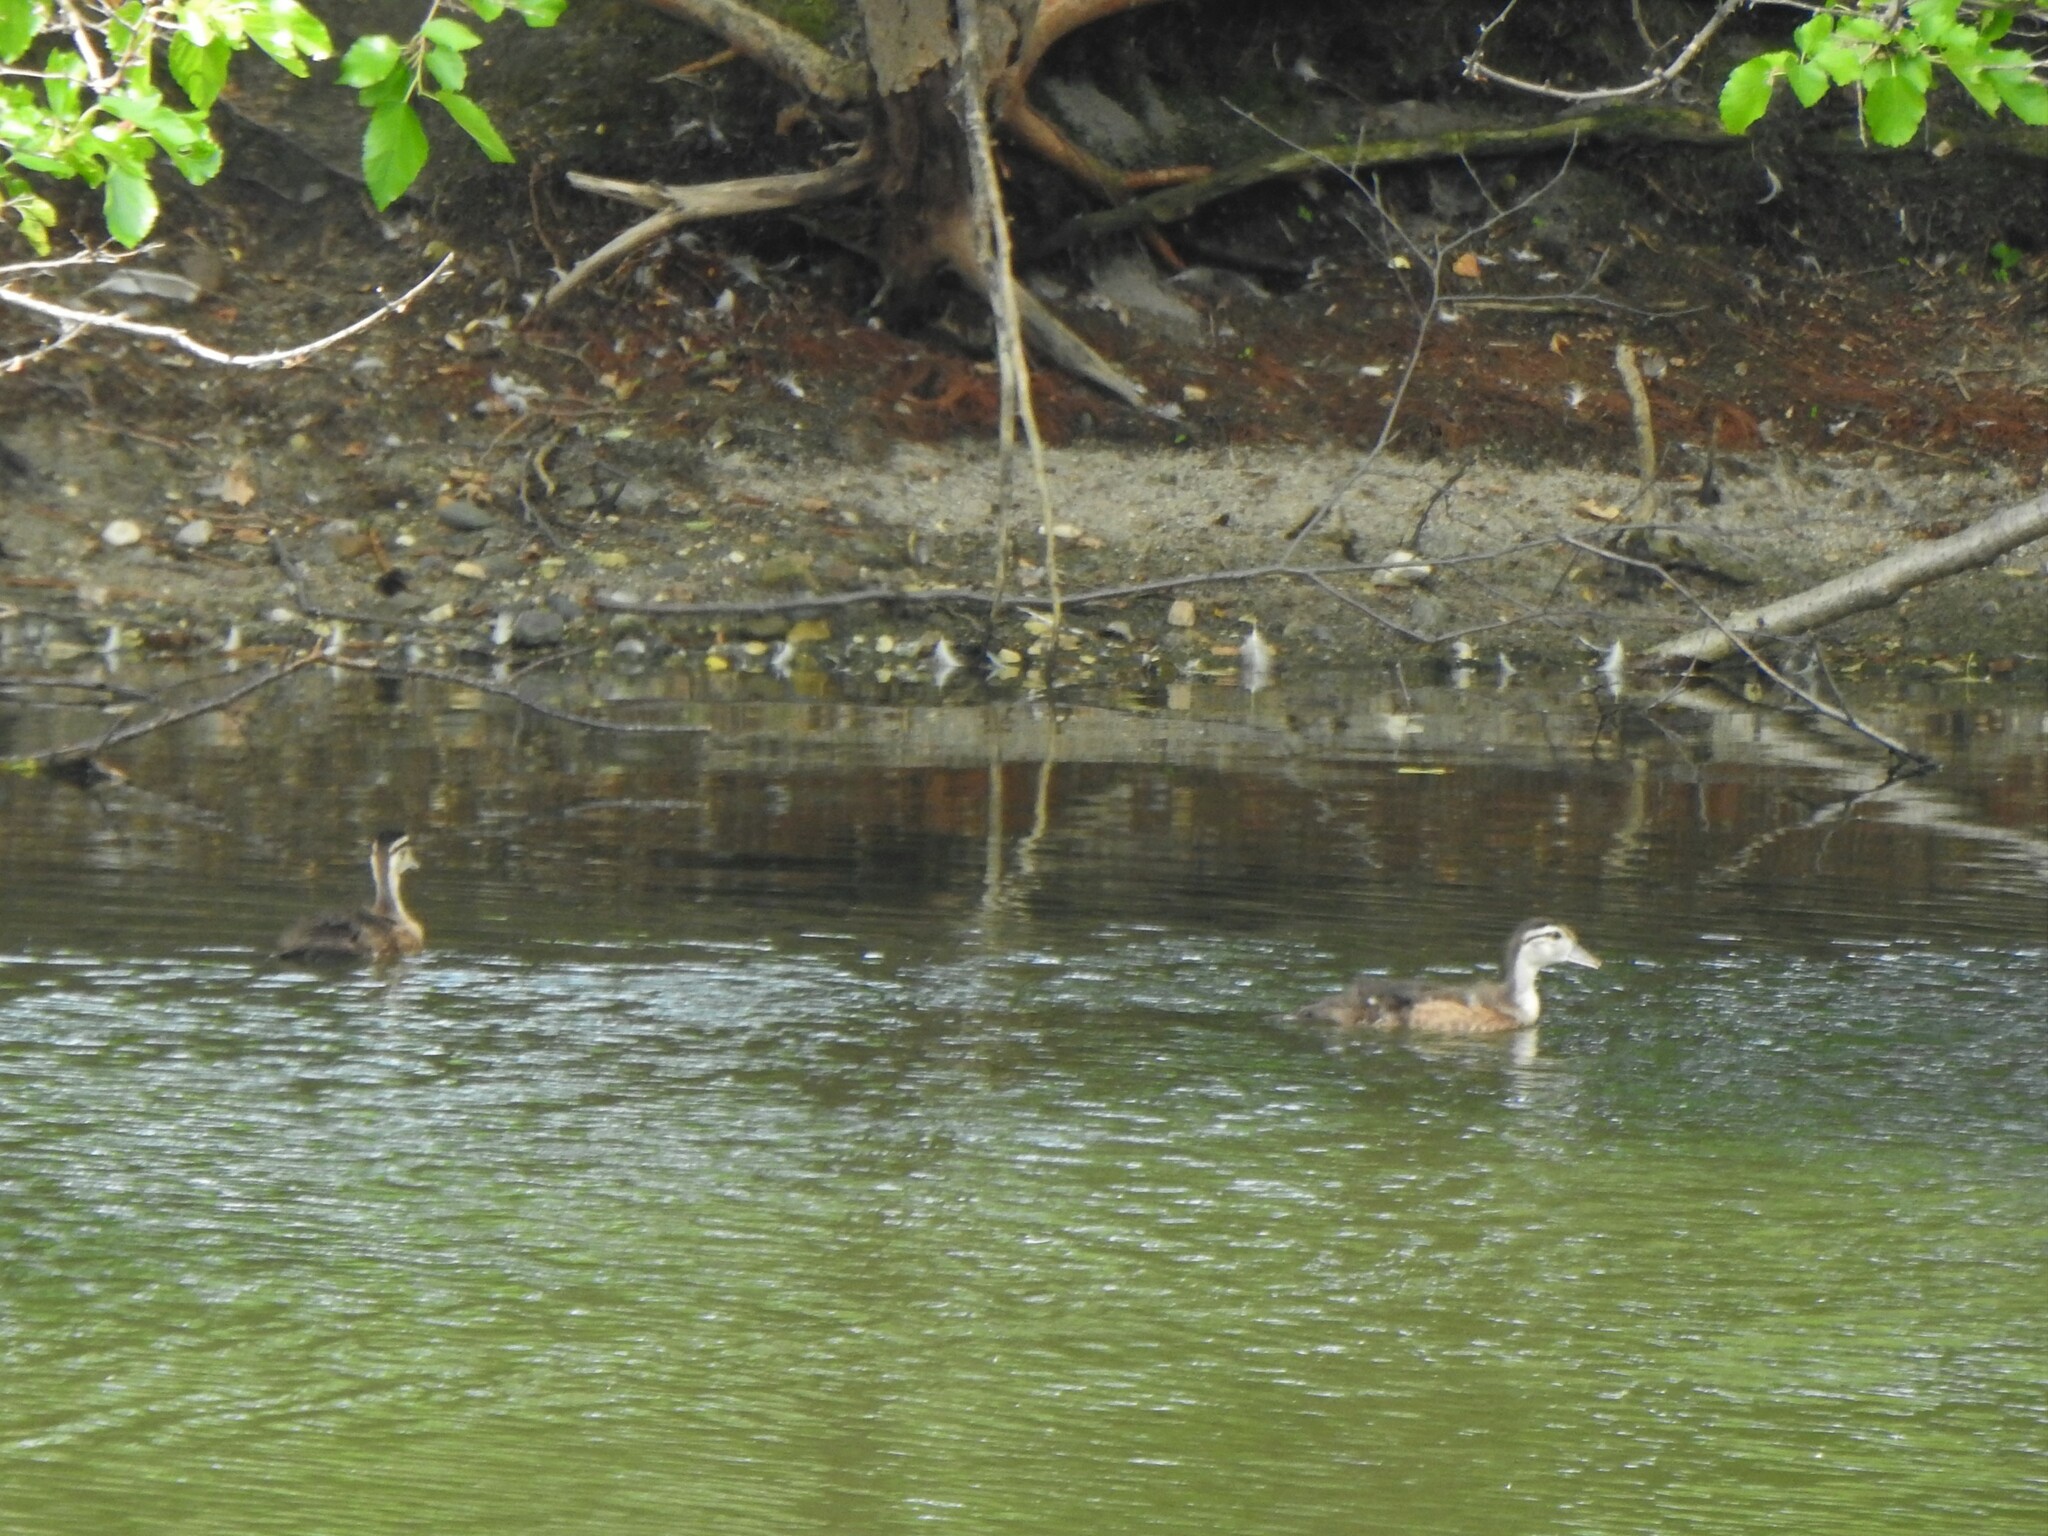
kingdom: Animalia
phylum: Chordata
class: Aves
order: Anseriformes
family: Anatidae
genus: Aix
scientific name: Aix sponsa
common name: Wood duck
